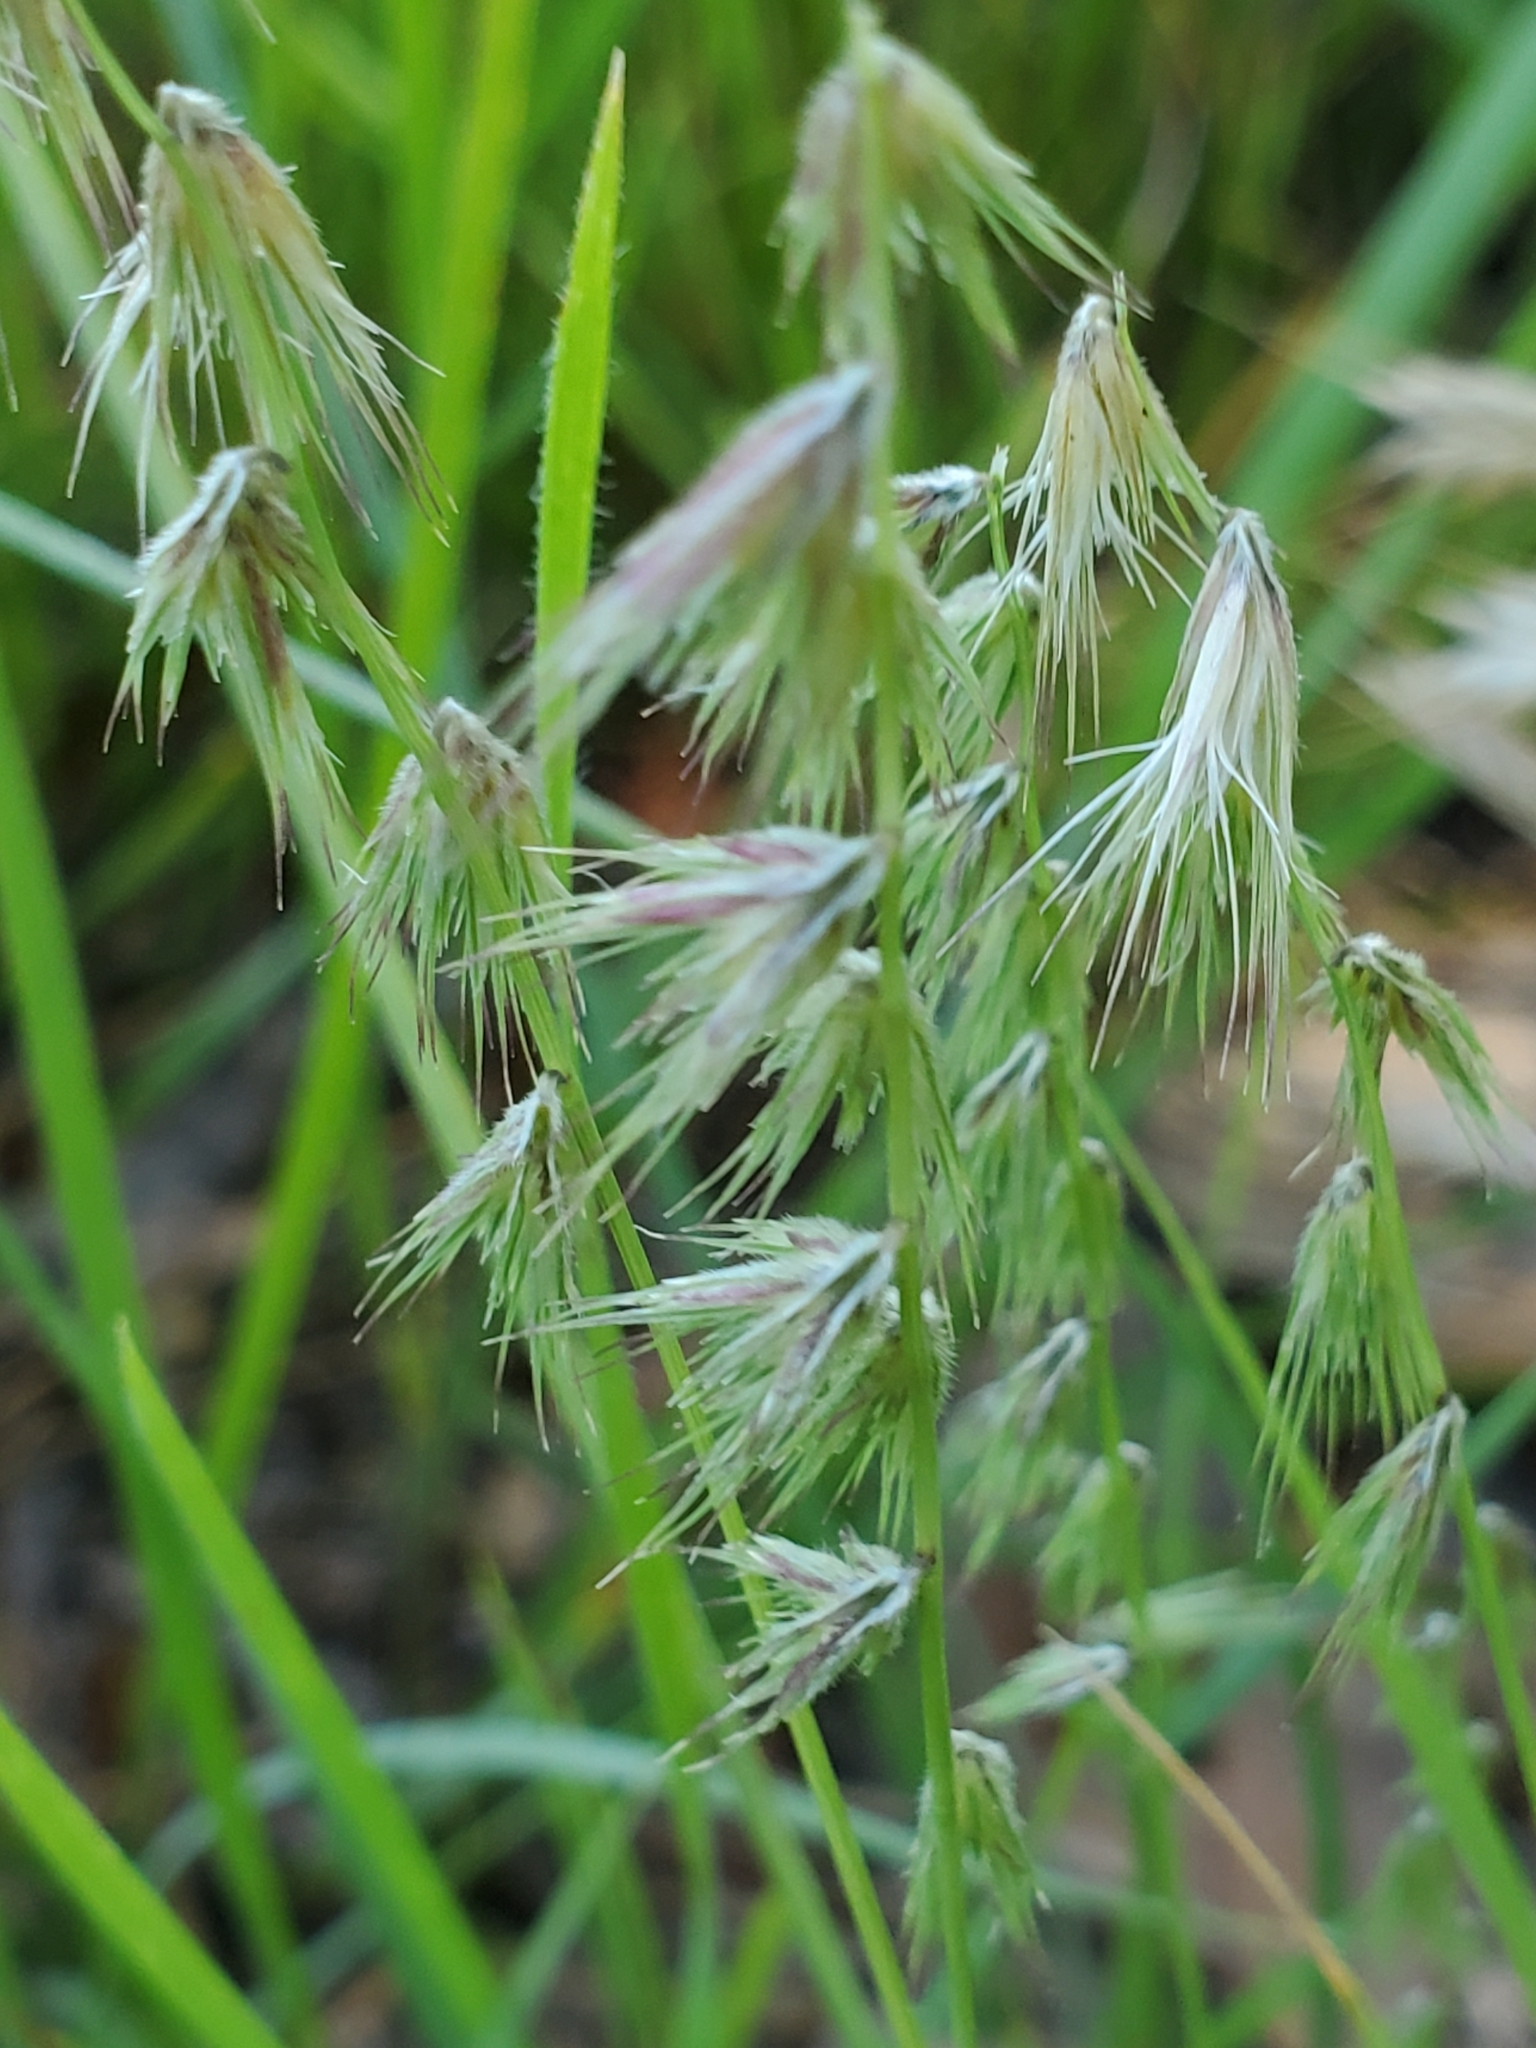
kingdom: Plantae
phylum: Tracheophyta
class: Liliopsida
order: Poales
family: Poaceae
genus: Bouteloua
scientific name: Bouteloua rigidiseta
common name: Texas grama
